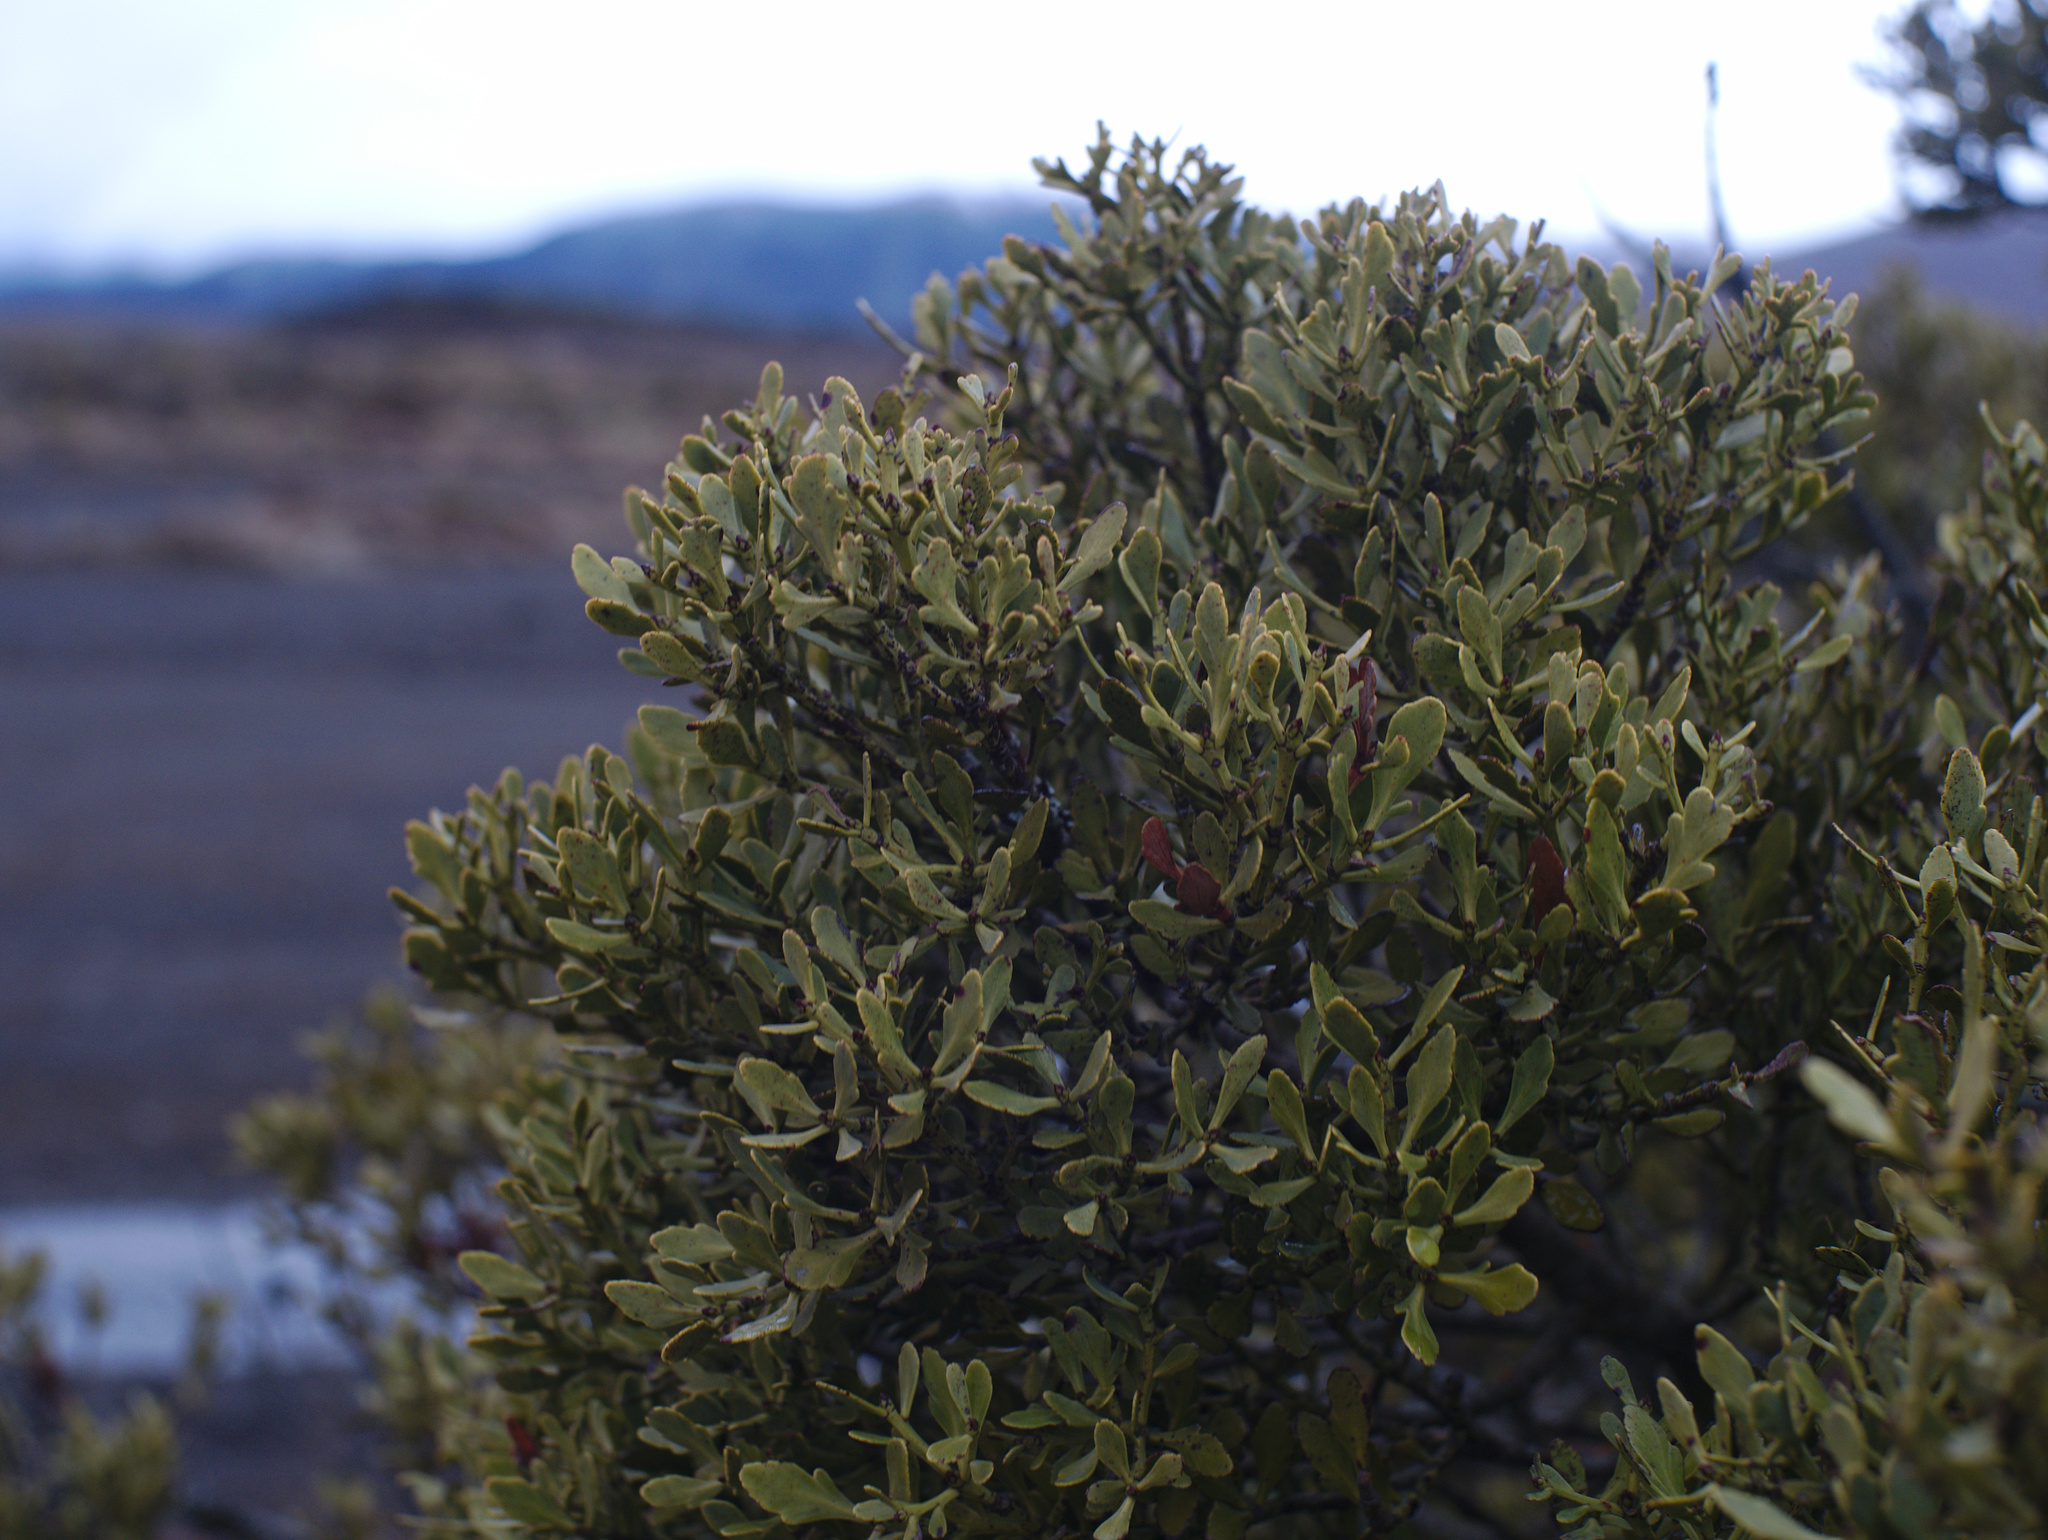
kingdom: Plantae
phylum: Tracheophyta
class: Pinopsida
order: Pinales
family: Phyllocladaceae
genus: Phyllocladus
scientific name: Phyllocladus trichomanoides
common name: Celery pine
